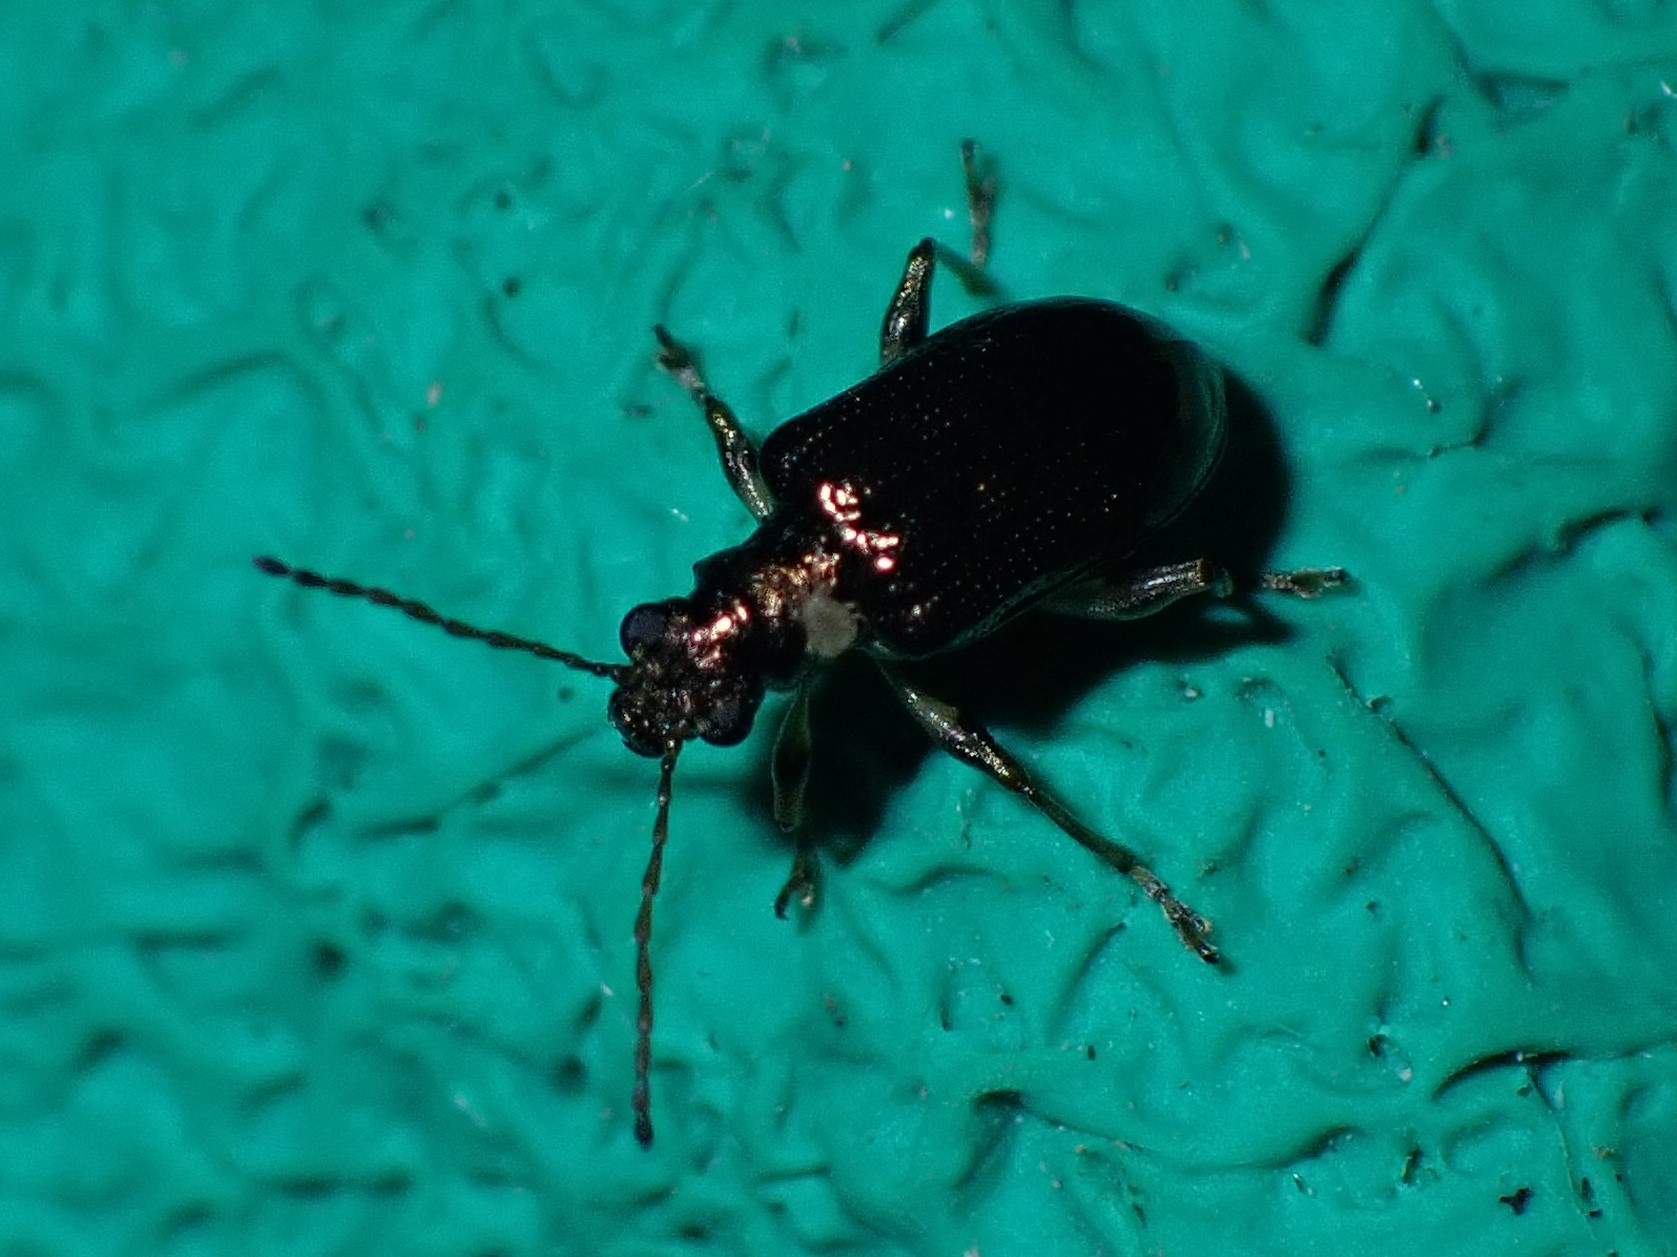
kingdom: Animalia
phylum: Arthropoda
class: Insecta
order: Coleoptera
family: Chrysomelidae
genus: Neolema
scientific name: Neolema ogloblini
